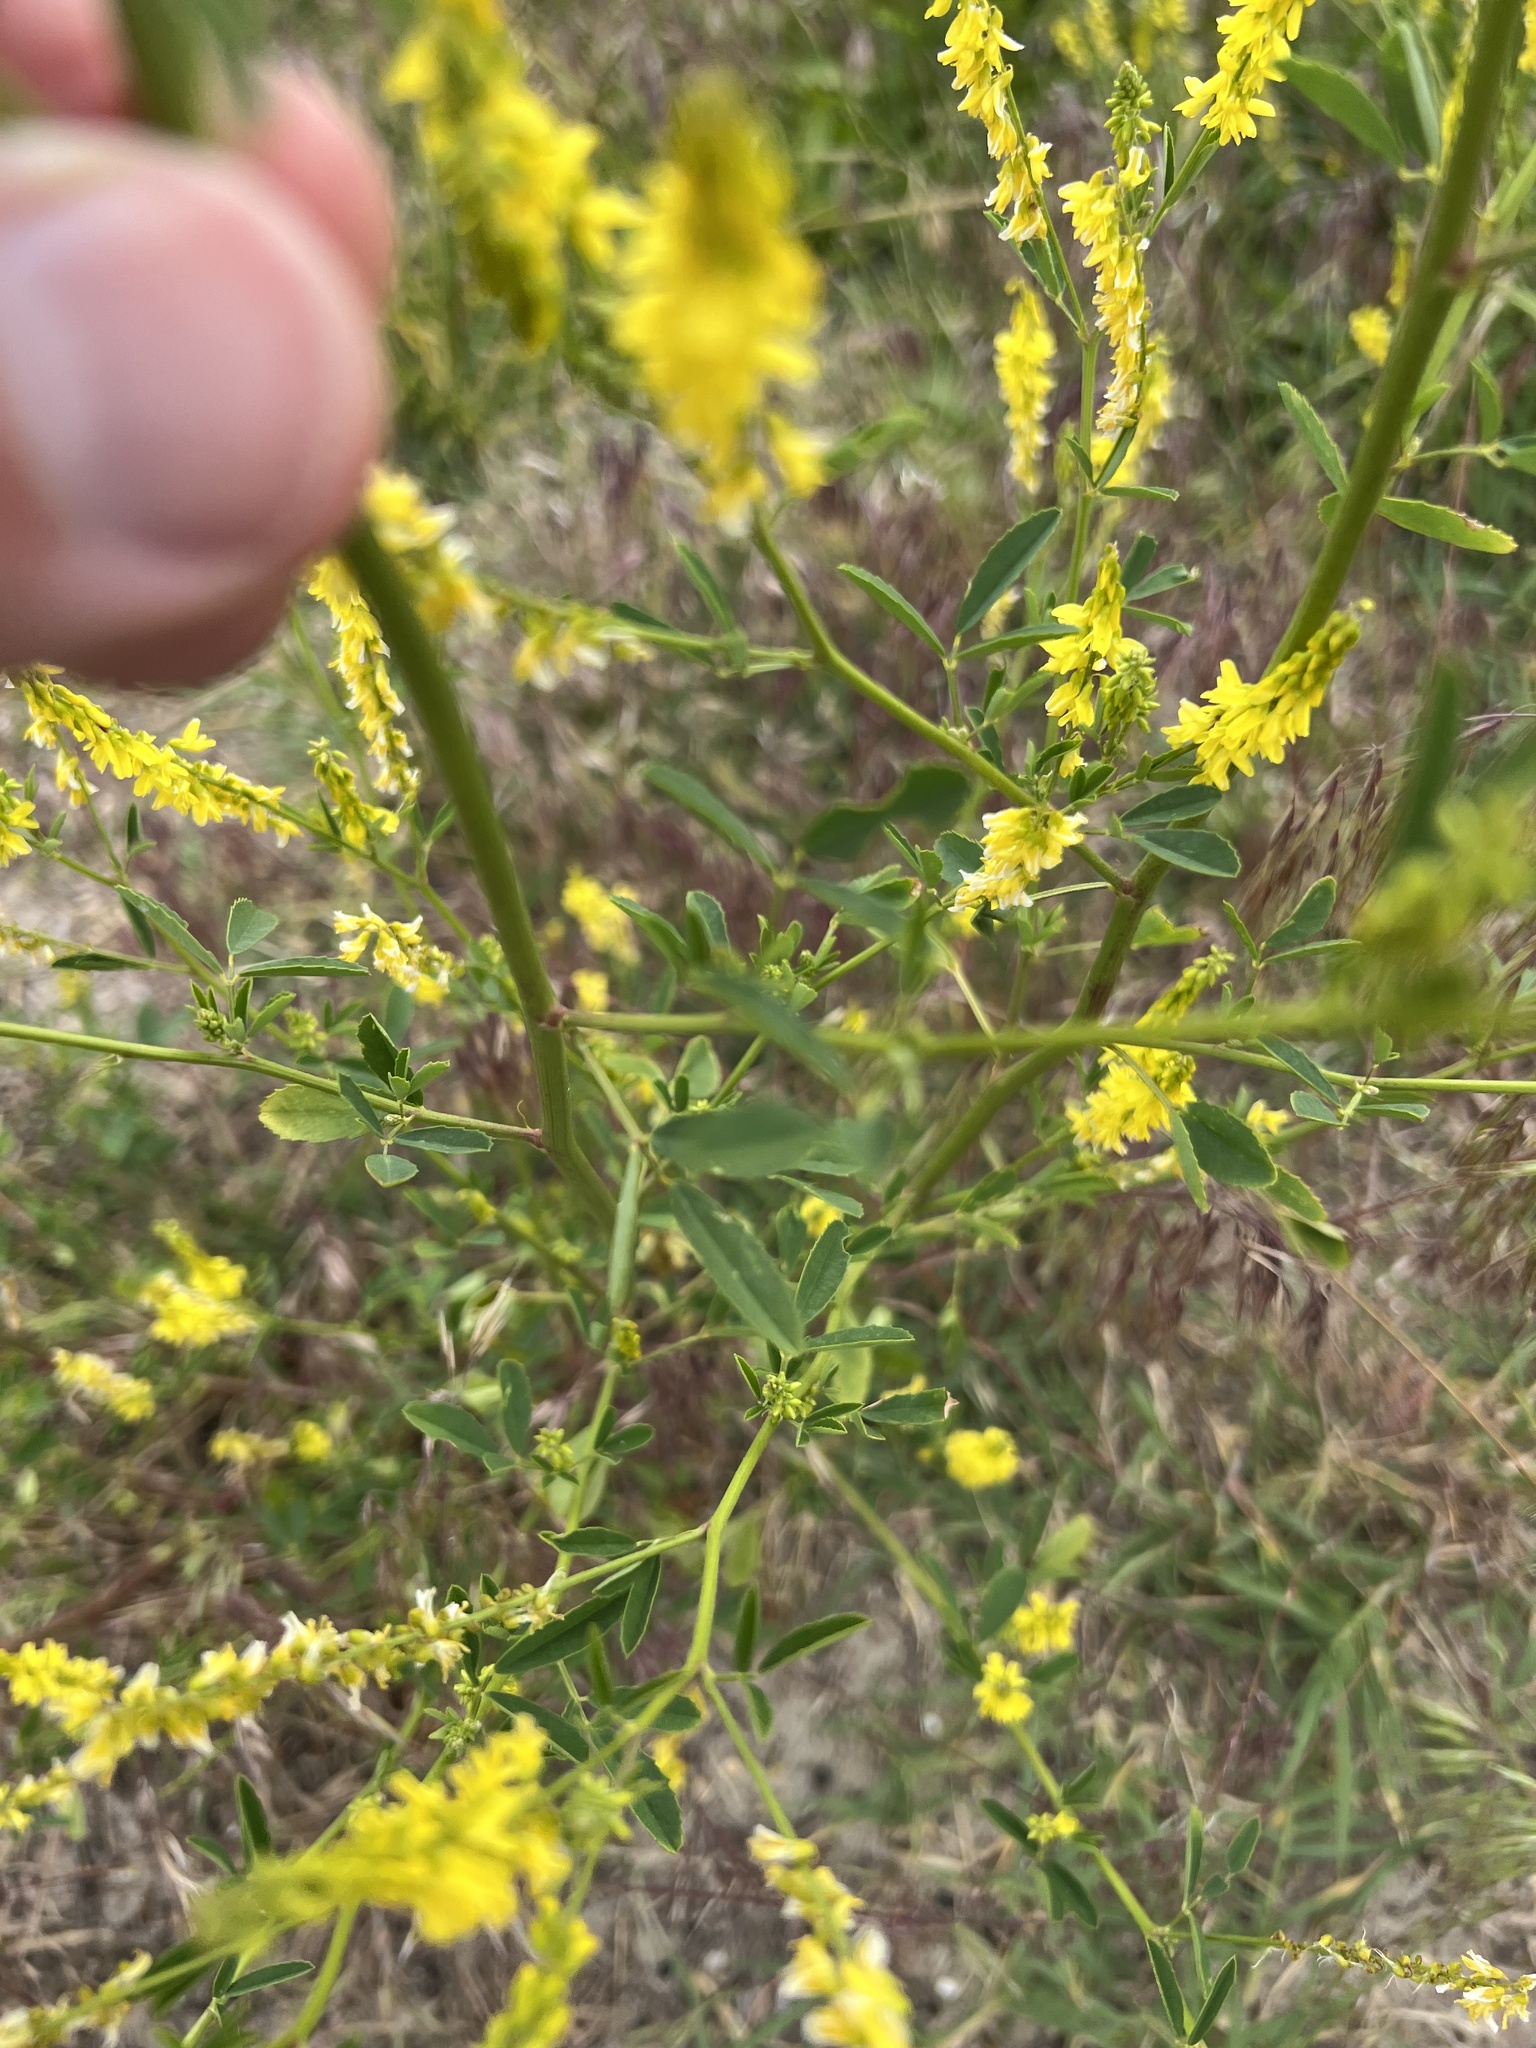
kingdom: Plantae
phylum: Tracheophyta
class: Magnoliopsida
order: Fabales
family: Fabaceae
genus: Melilotus
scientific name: Melilotus officinalis
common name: Sweetclover
